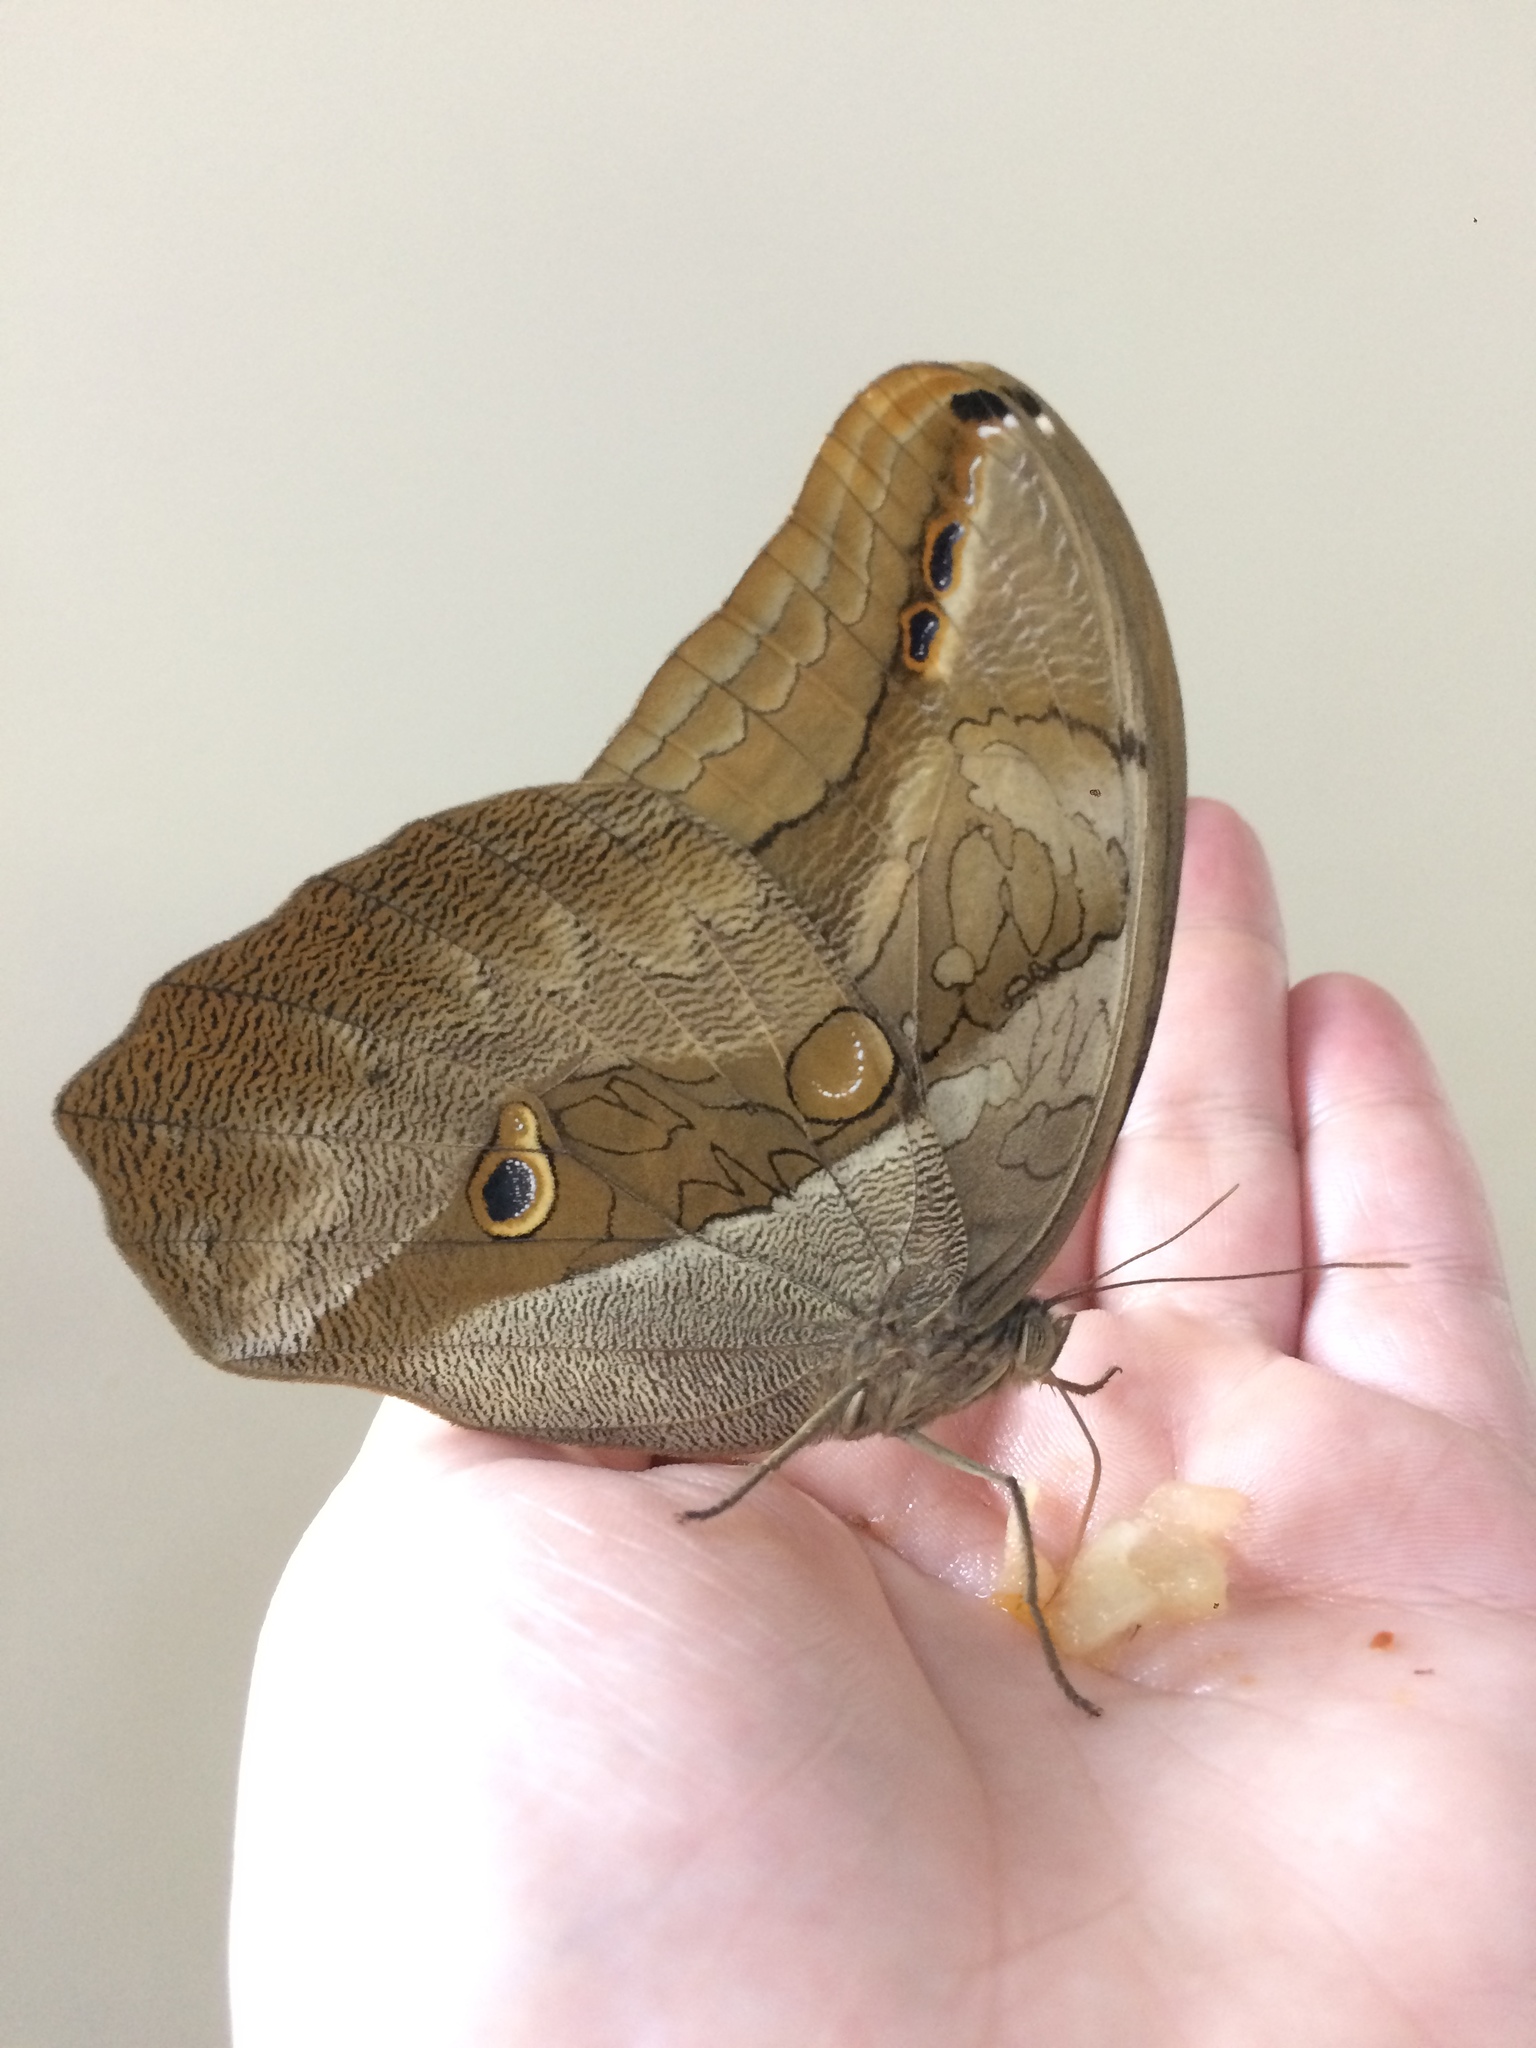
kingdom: Animalia
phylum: Arthropoda
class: Insecta
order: Lepidoptera
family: Nymphalidae
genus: Eryphanis
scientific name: Eryphanis polyxena
